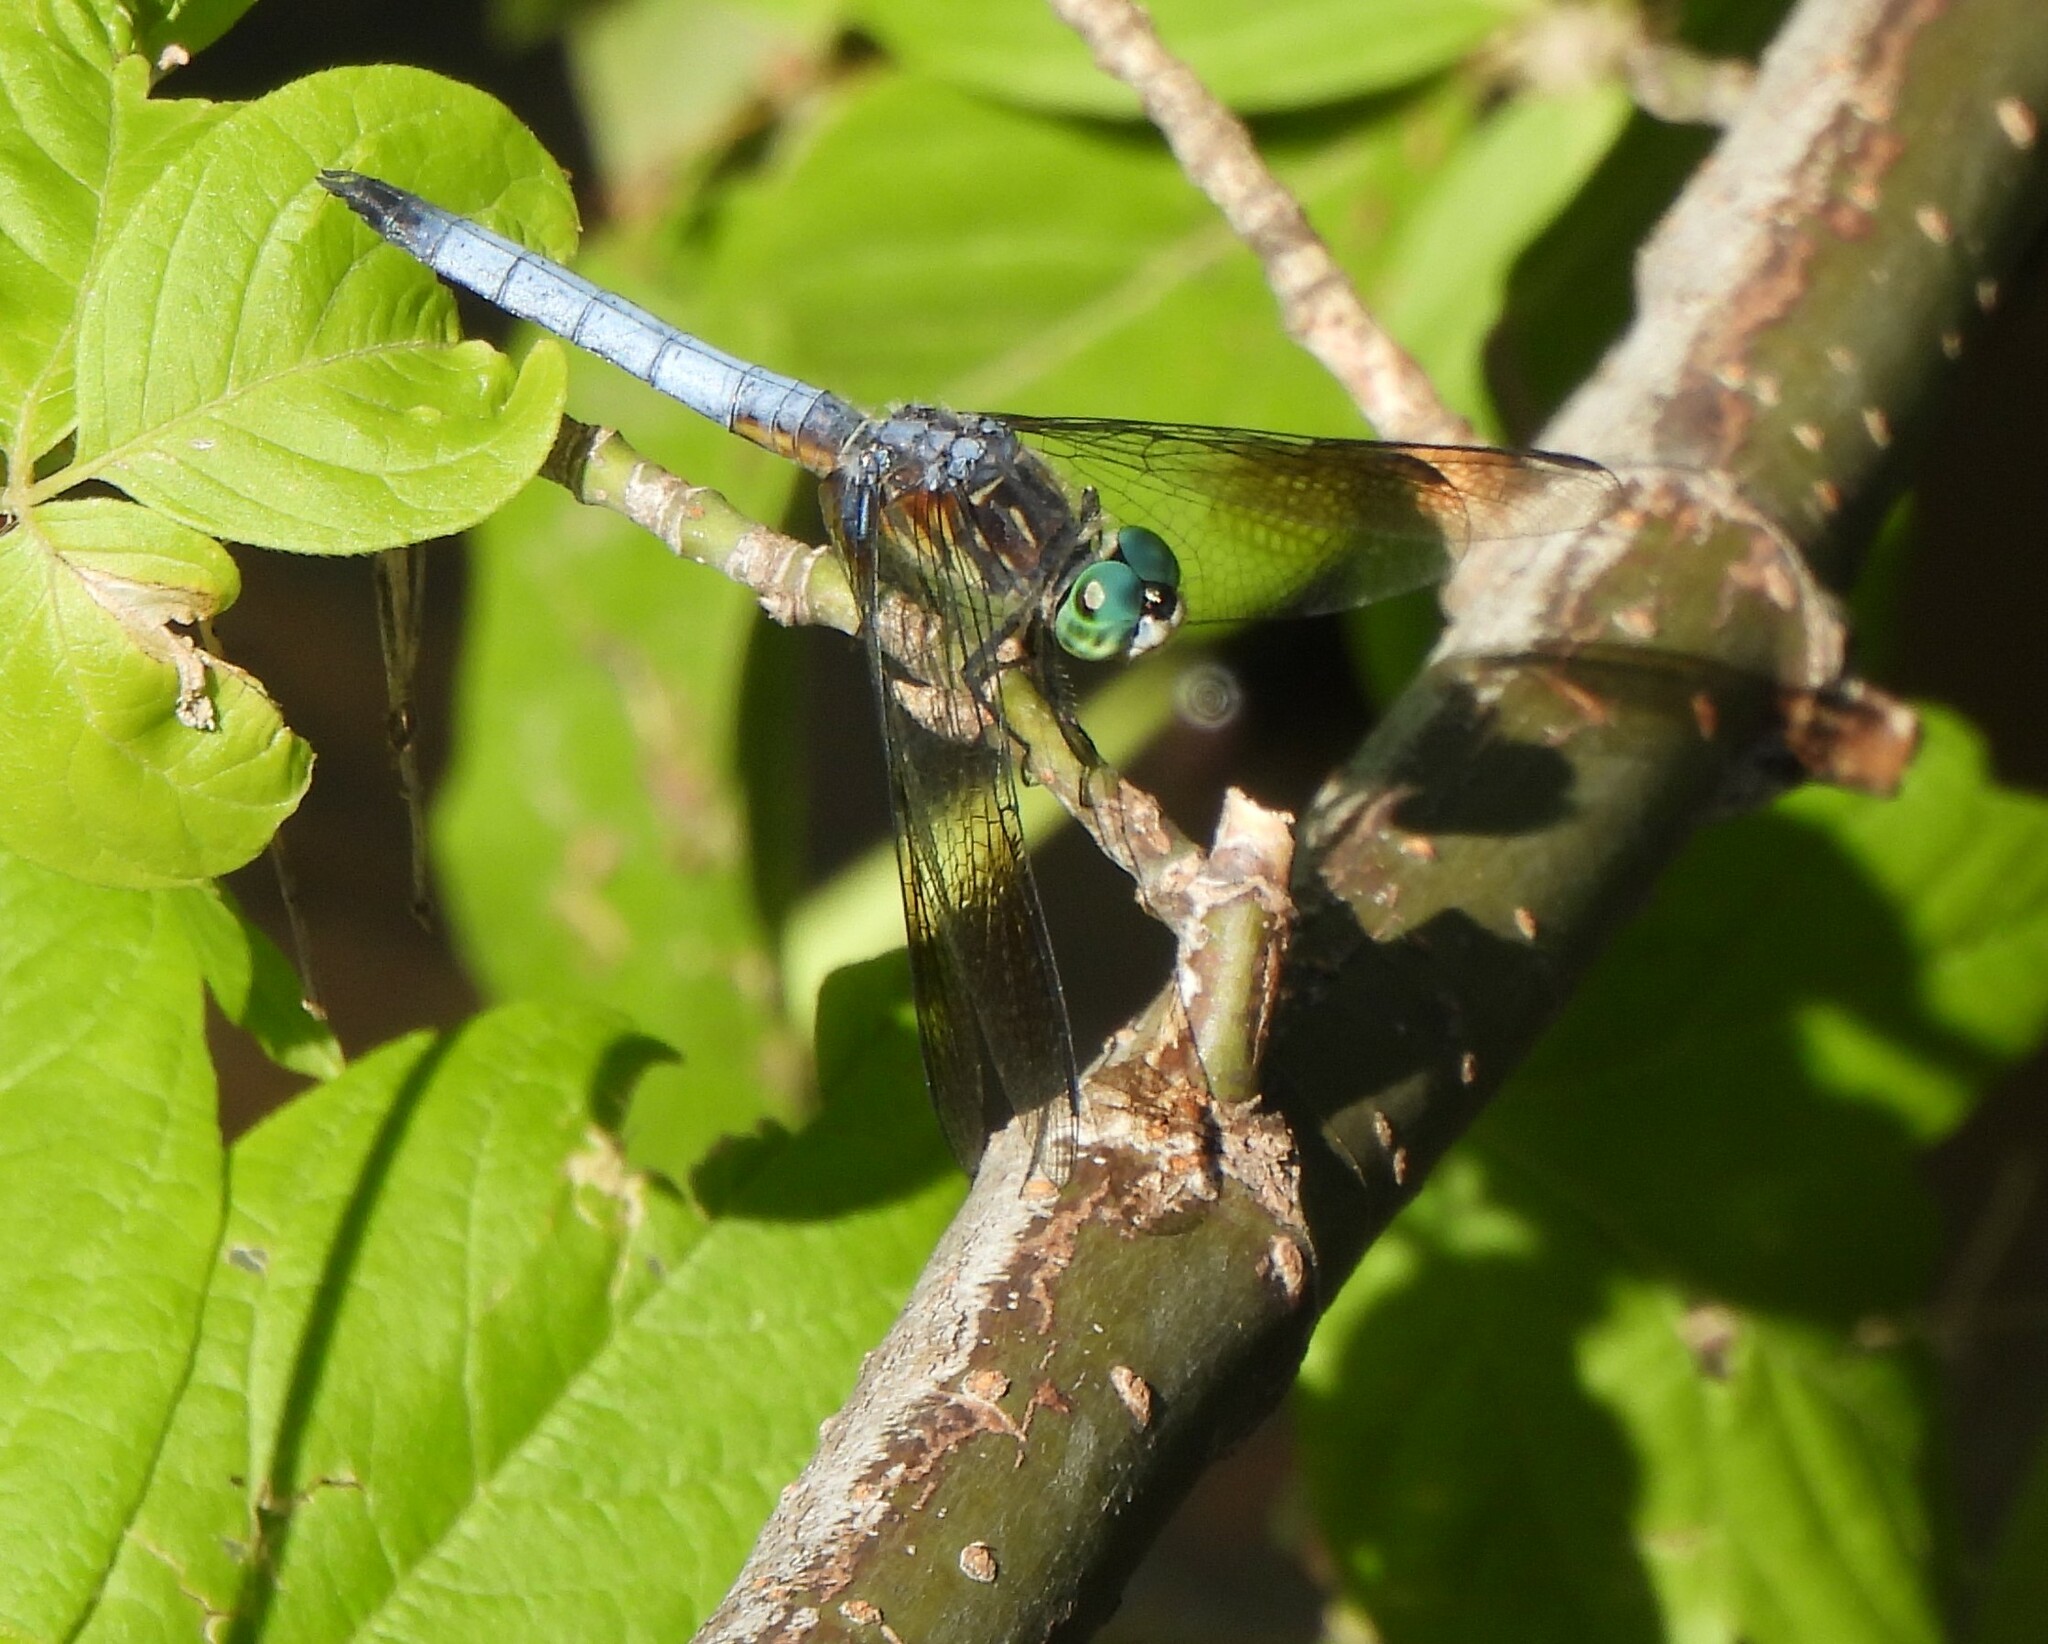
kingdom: Animalia
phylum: Arthropoda
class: Insecta
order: Odonata
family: Libellulidae
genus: Pachydiplax
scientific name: Pachydiplax longipennis
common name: Blue dasher
